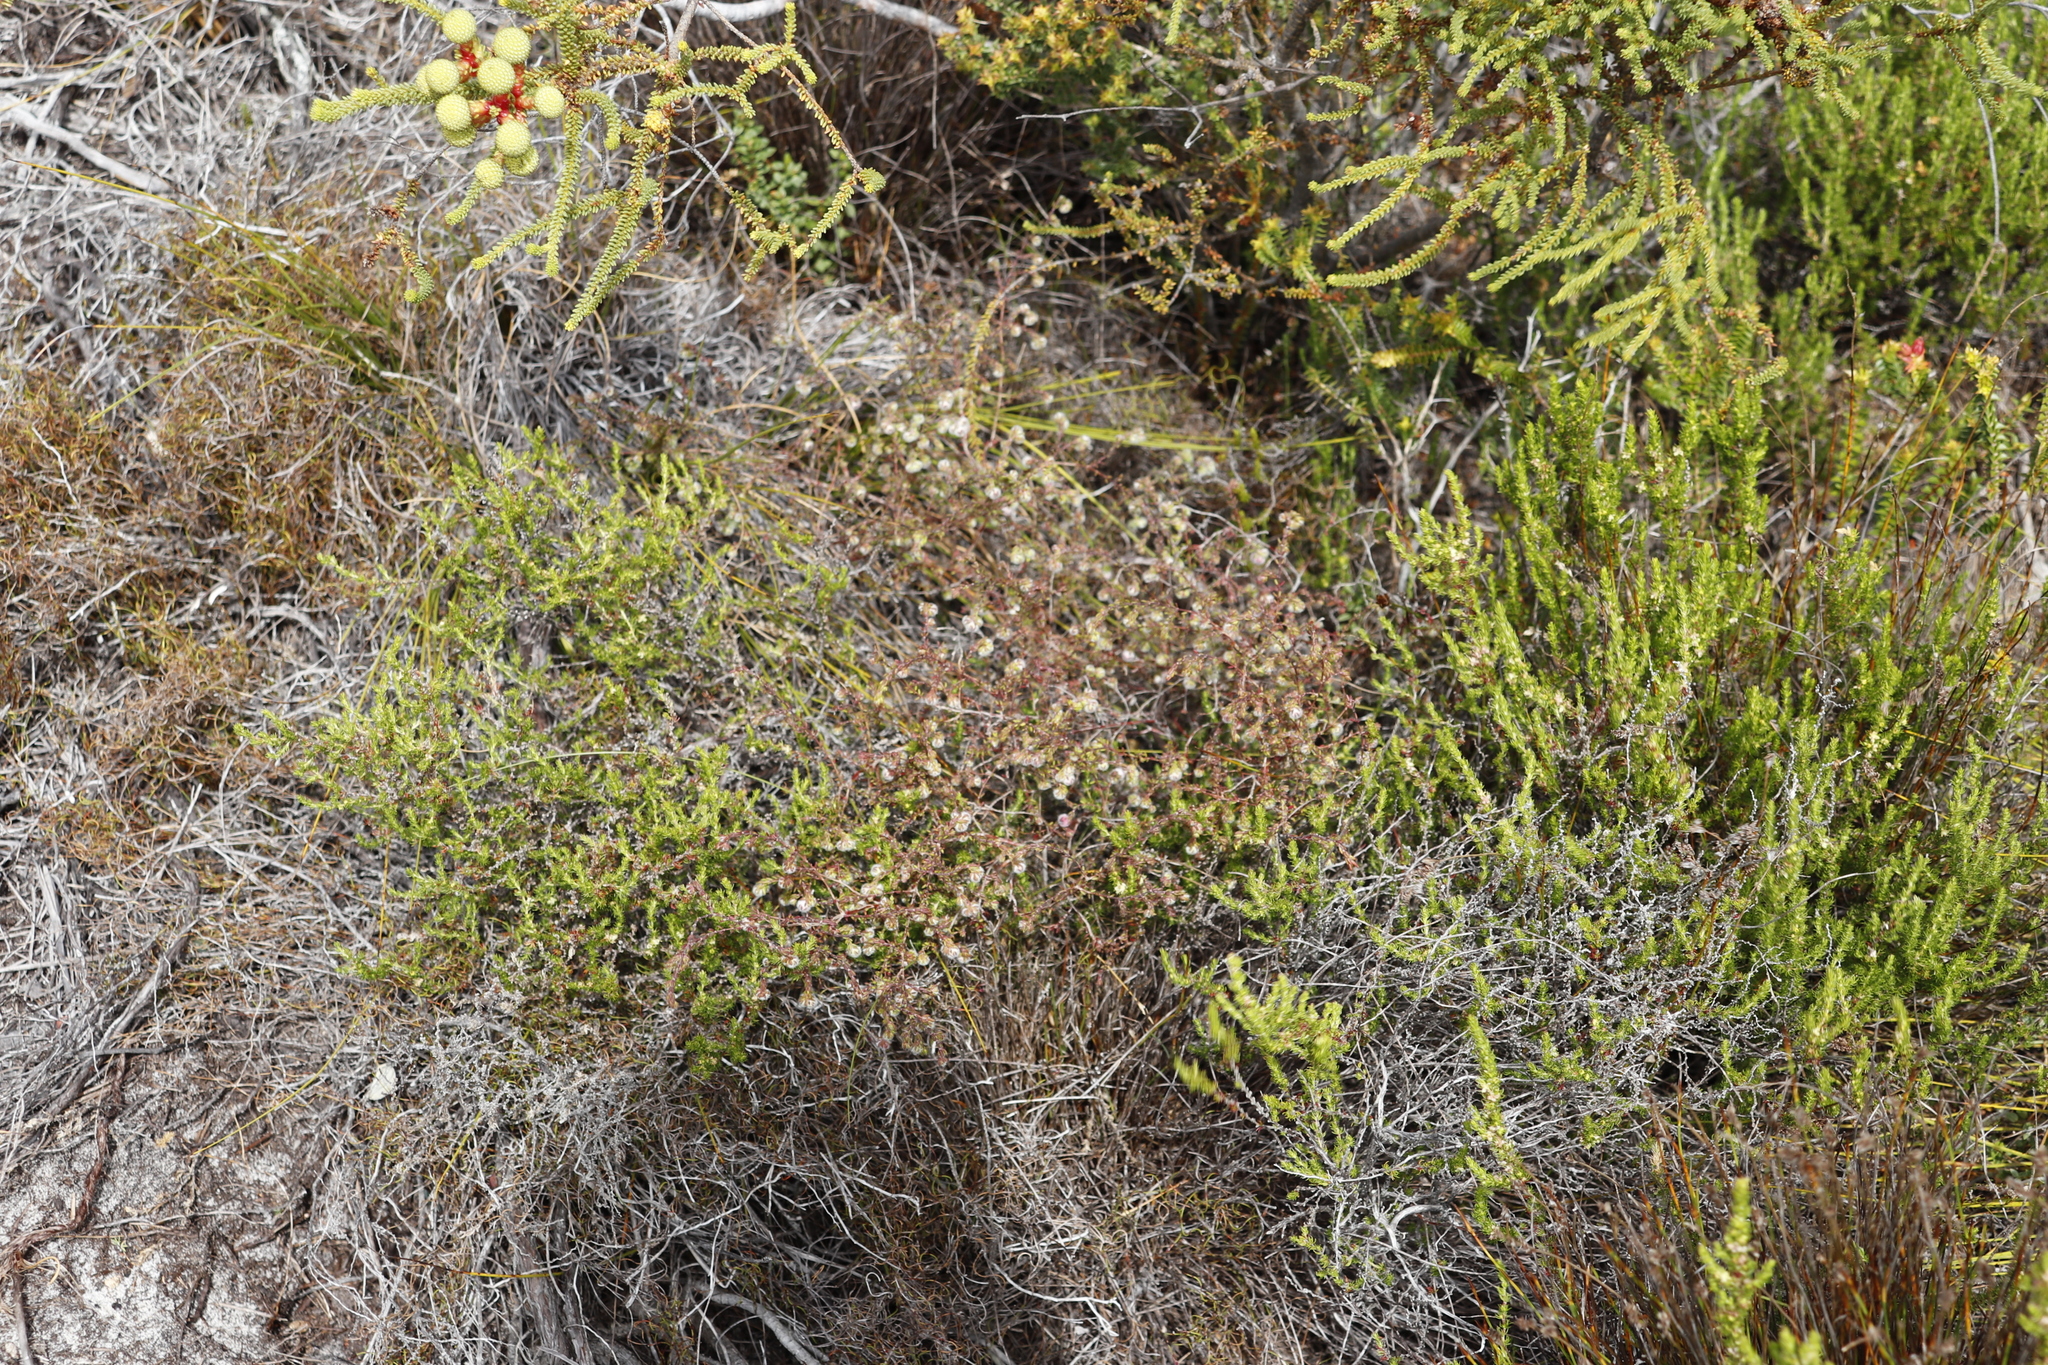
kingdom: Plantae
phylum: Tracheophyta
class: Magnoliopsida
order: Ericales
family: Ericaceae
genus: Erica
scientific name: Erica bruniades
